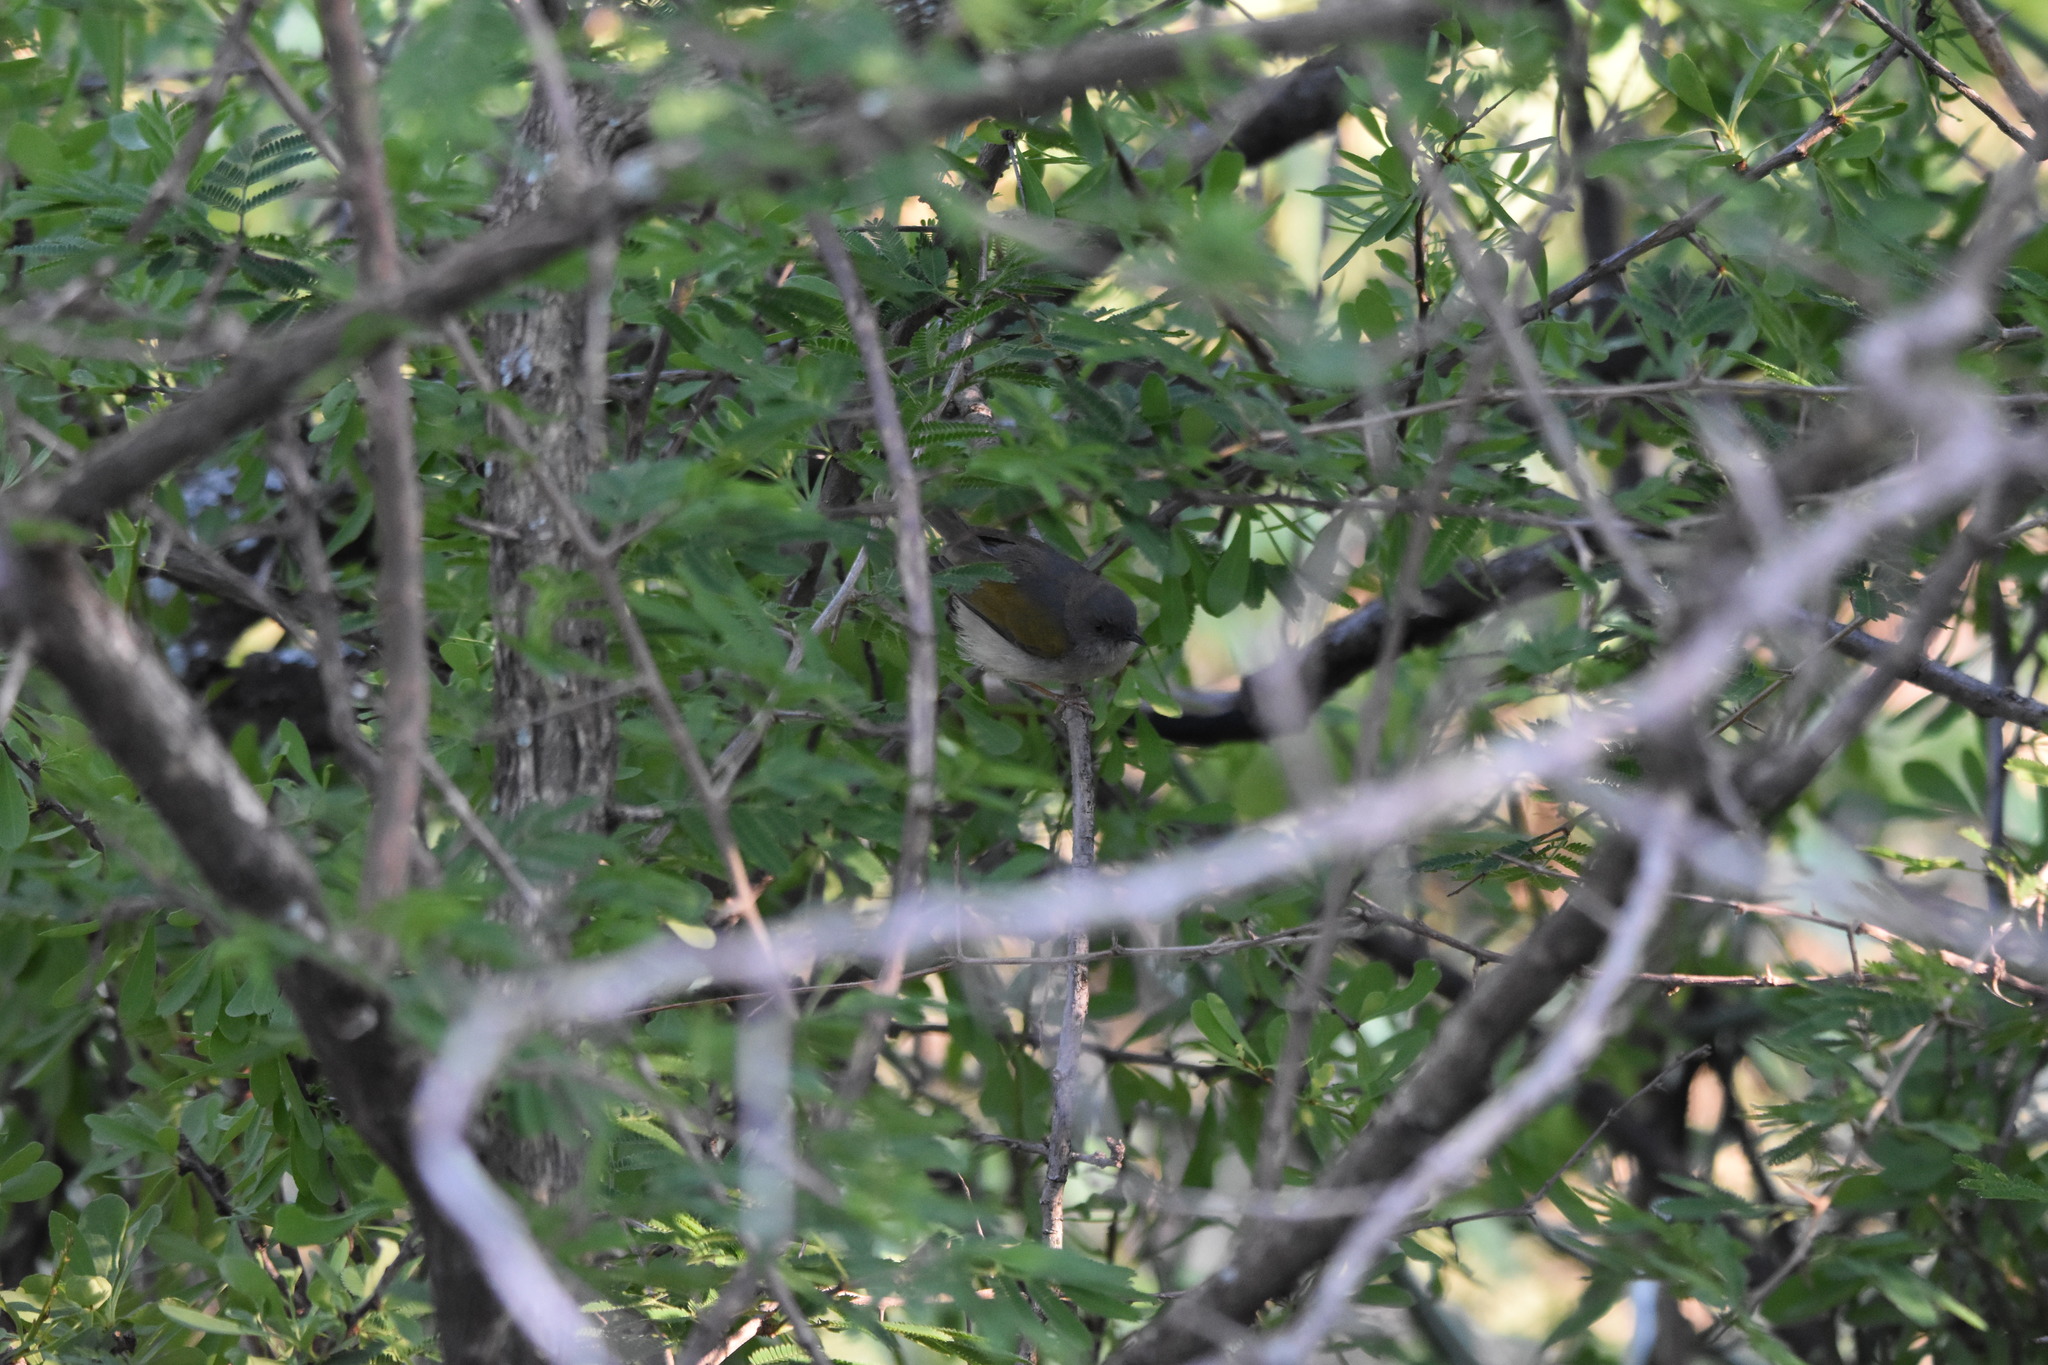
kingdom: Animalia
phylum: Chordata
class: Aves
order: Passeriformes
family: Cisticolidae
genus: Camaroptera
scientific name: Camaroptera brachyura
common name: Green-backed camaroptera
